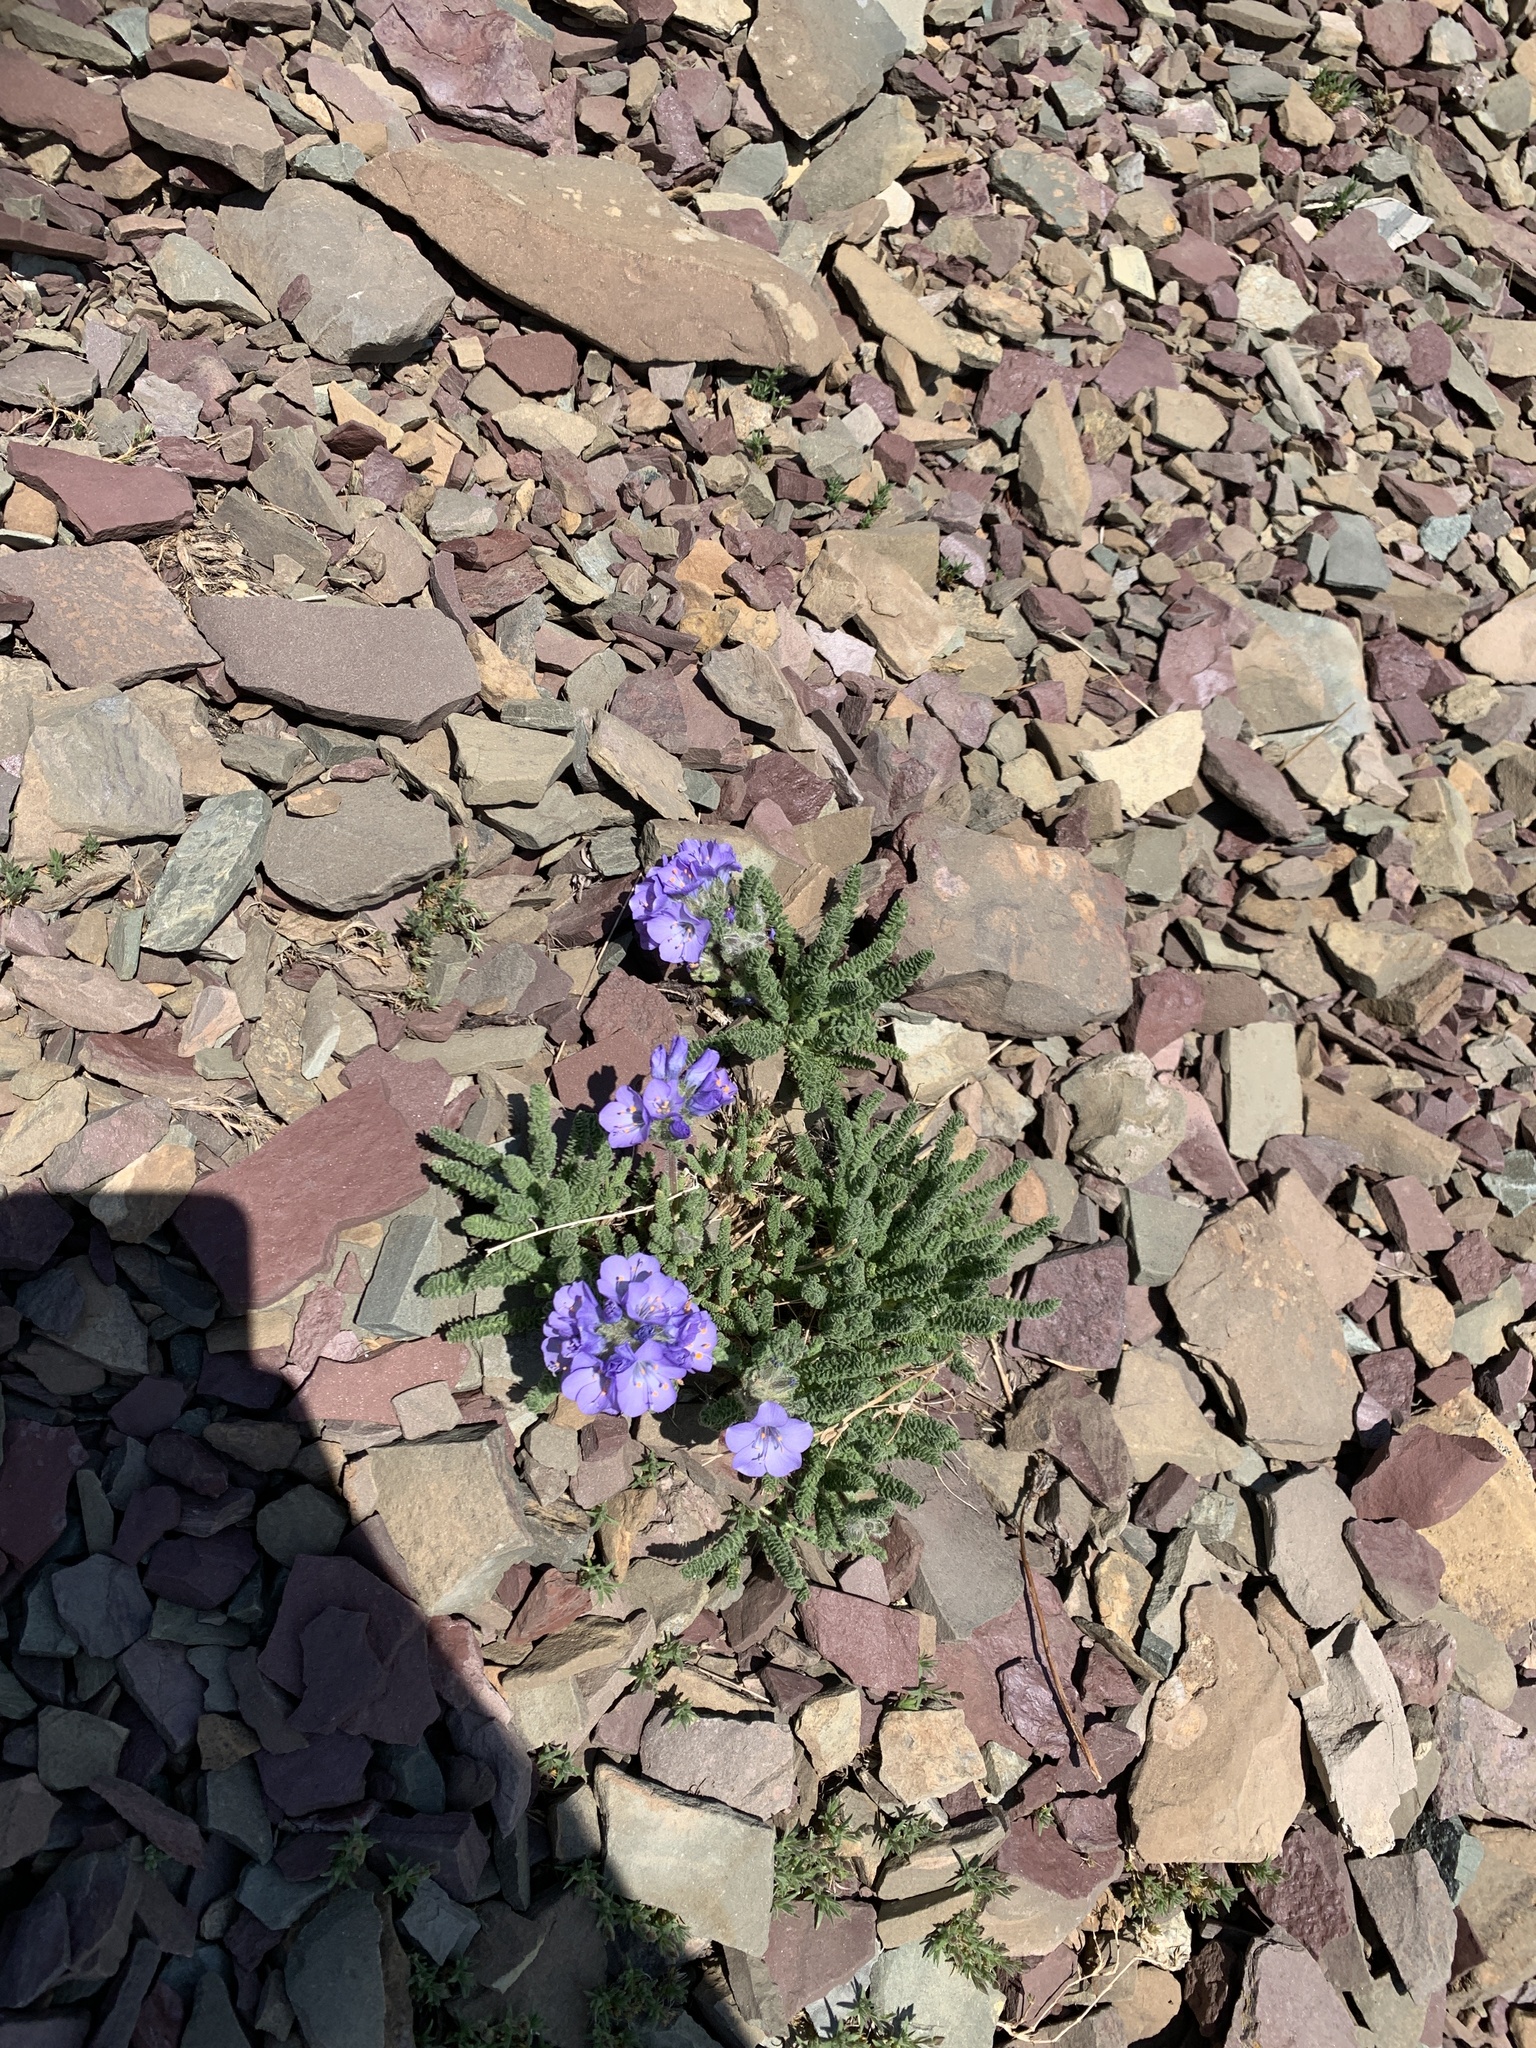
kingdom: Plantae
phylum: Tracheophyta
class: Magnoliopsida
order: Ericales
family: Polemoniaceae
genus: Polemonium
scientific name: Polemonium viscosum
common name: Skunk jacob's-ladder
